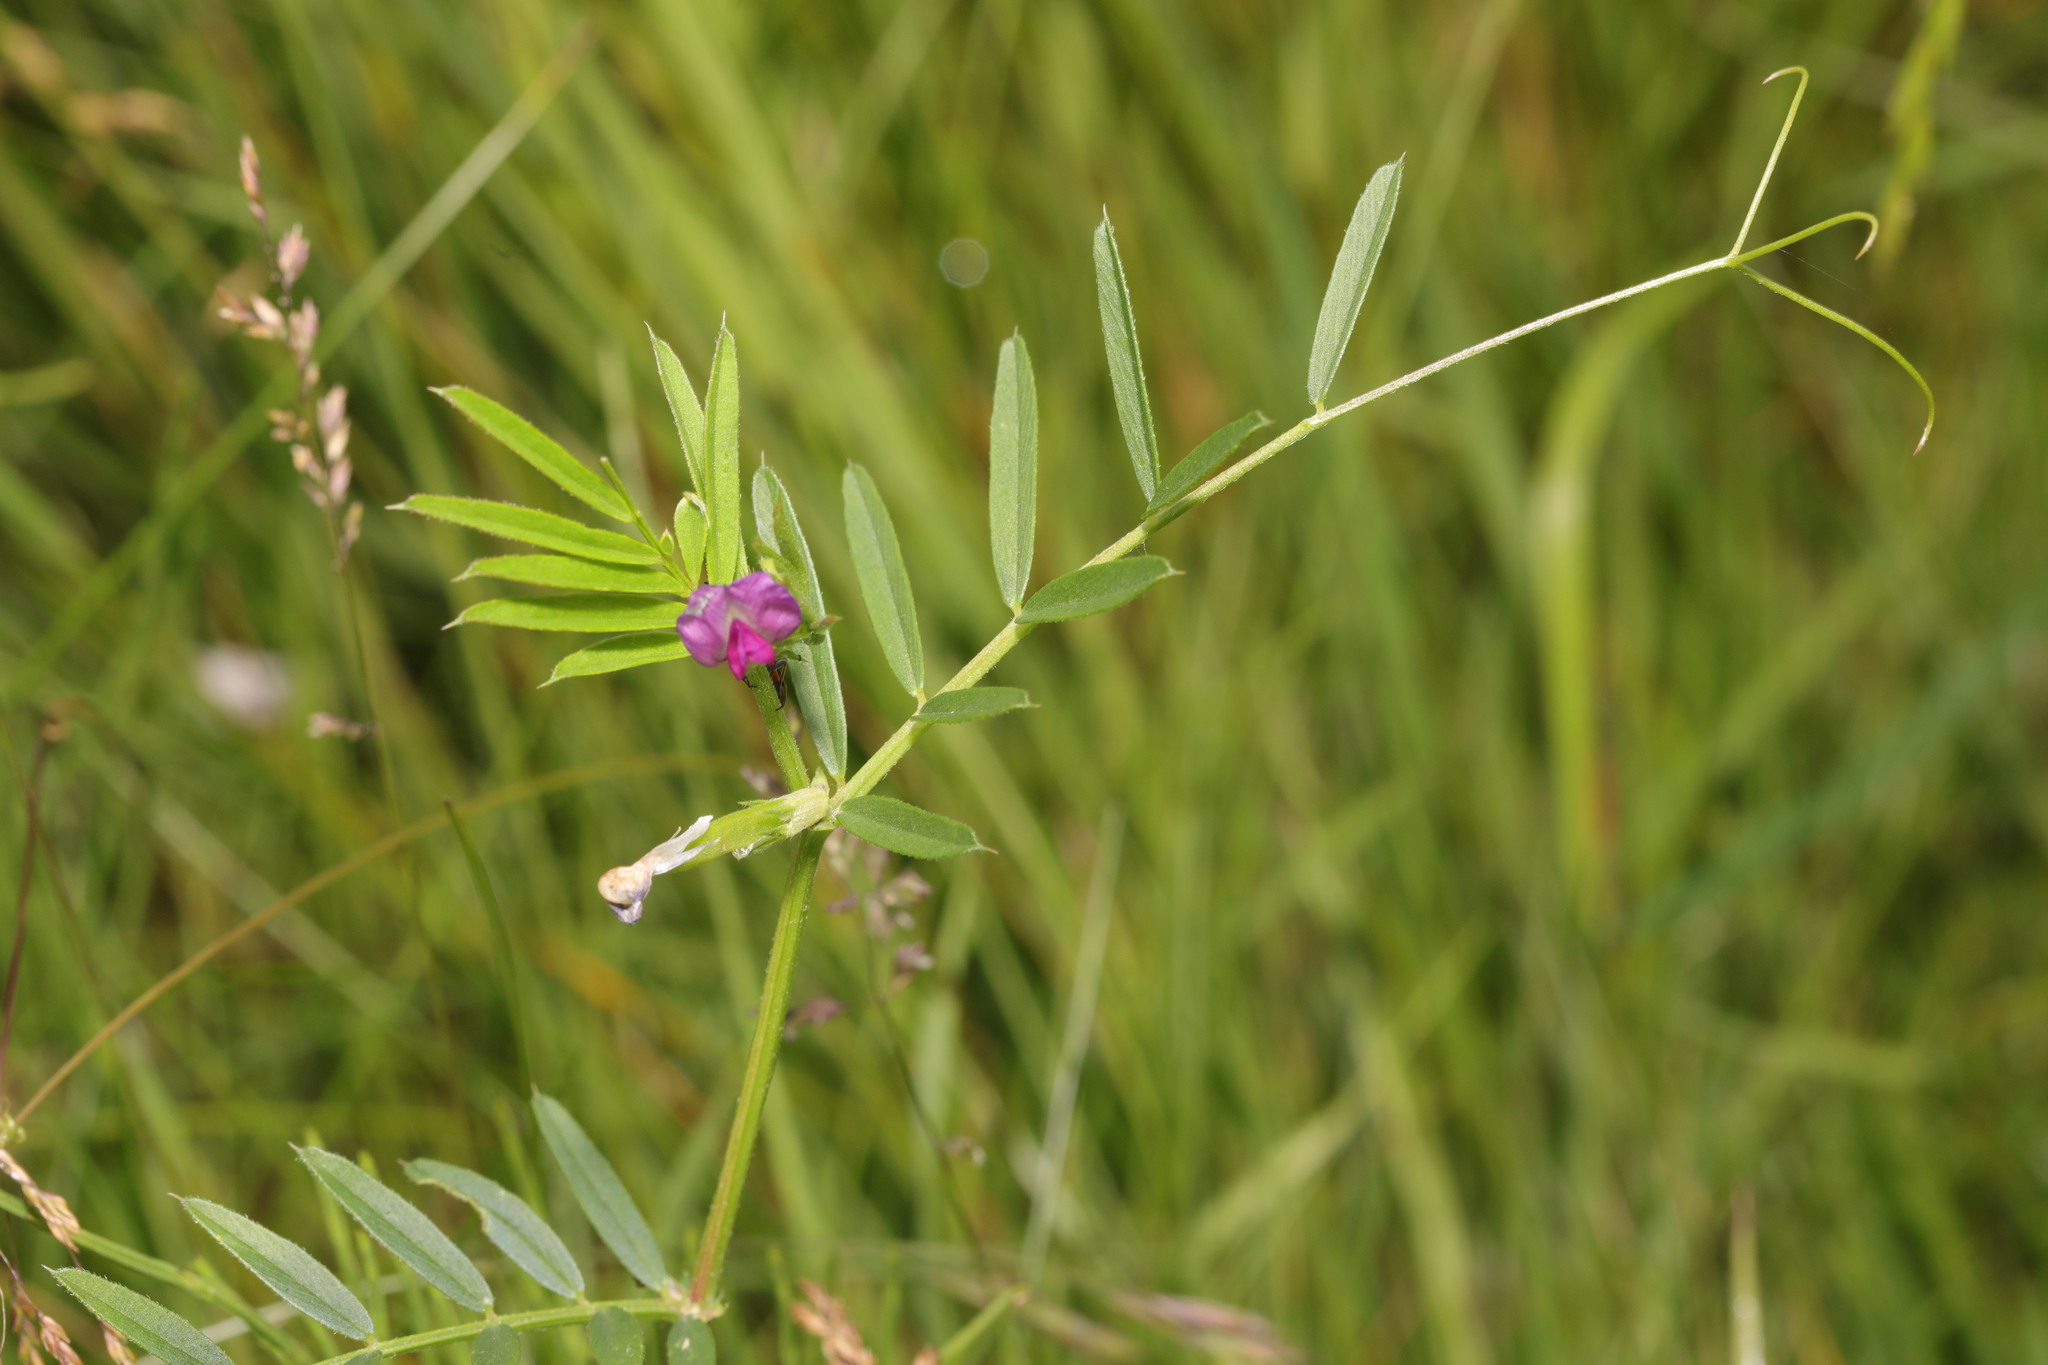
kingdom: Plantae
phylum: Tracheophyta
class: Magnoliopsida
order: Fabales
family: Fabaceae
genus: Vicia
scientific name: Vicia sativa
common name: Garden vetch
